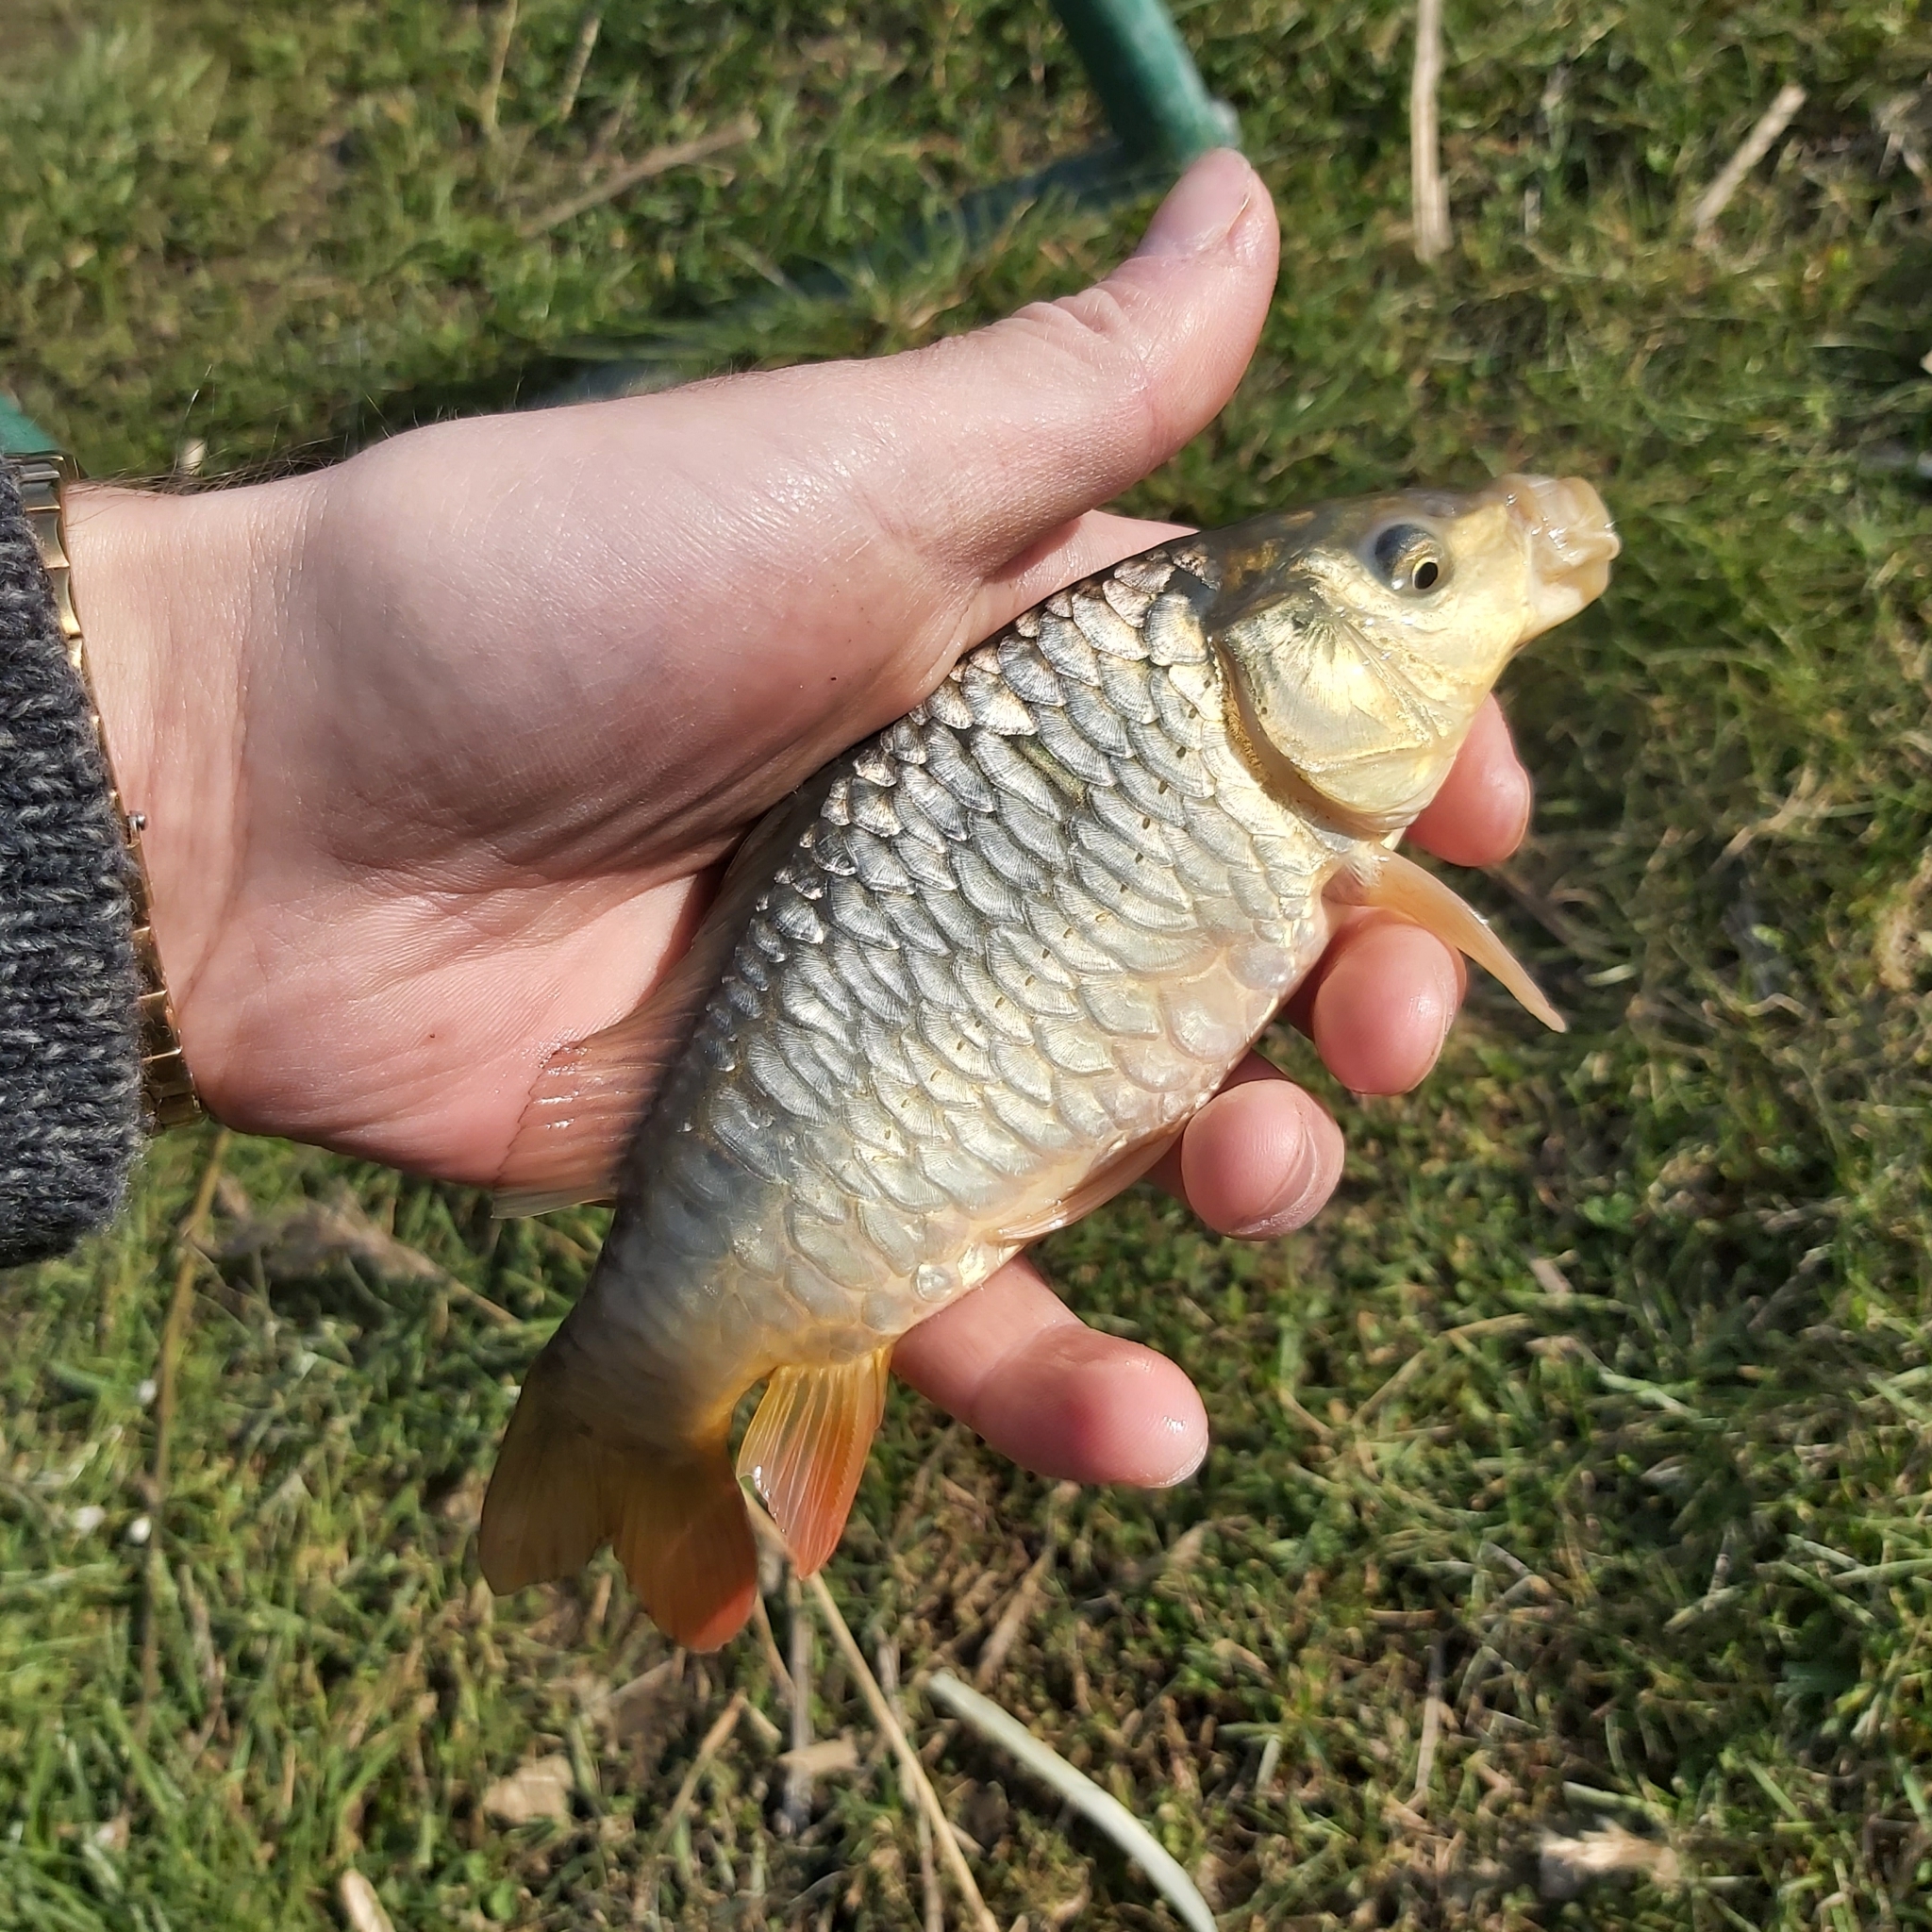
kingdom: Animalia
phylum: Chordata
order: Cypriniformes
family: Cyprinidae
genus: Cyprinus
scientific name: Cyprinus carpio
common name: Common carp
